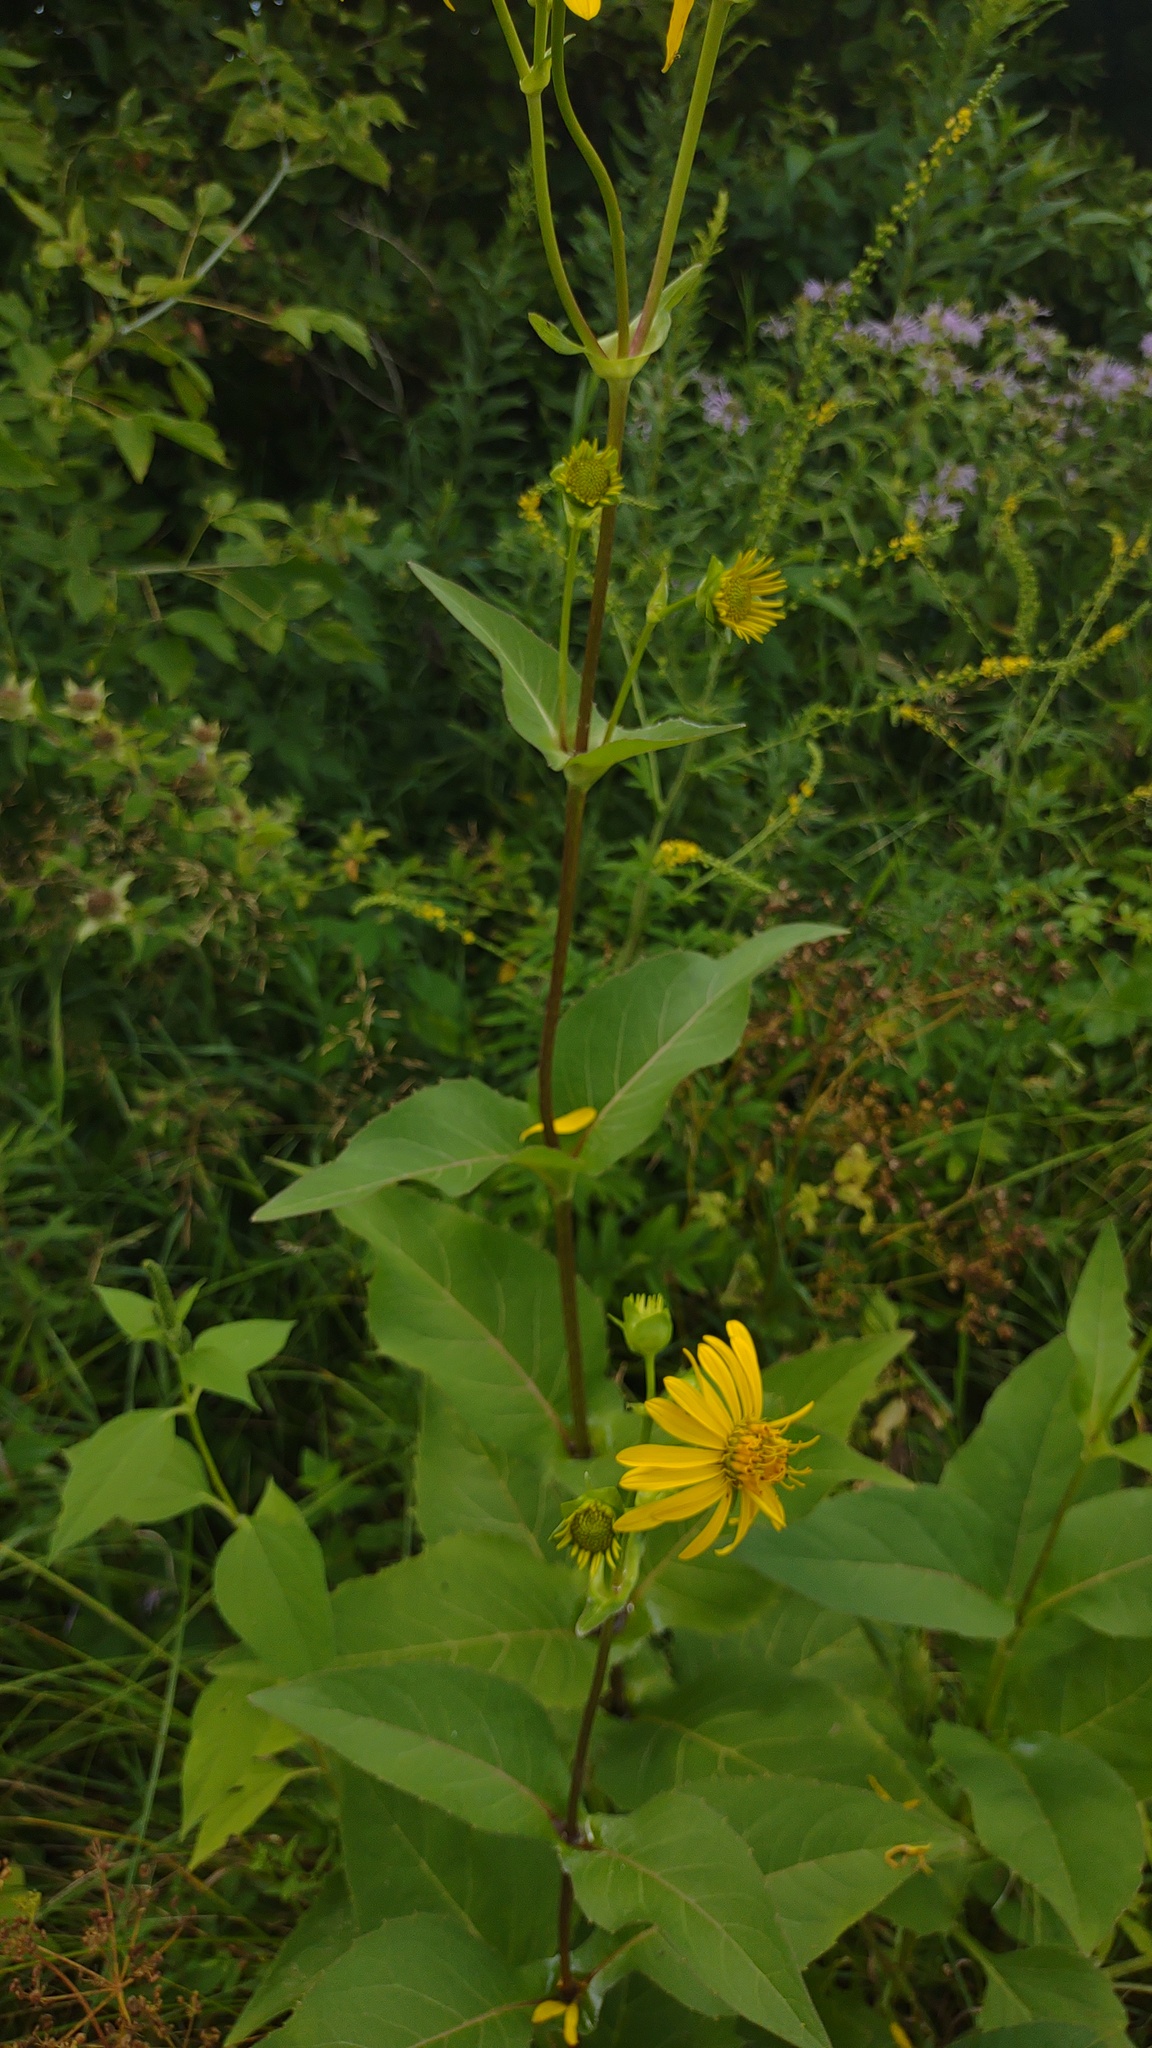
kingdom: Plantae
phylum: Tracheophyta
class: Magnoliopsida
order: Asterales
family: Asteraceae
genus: Silphium
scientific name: Silphium perfoliatum
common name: Cup-plant
